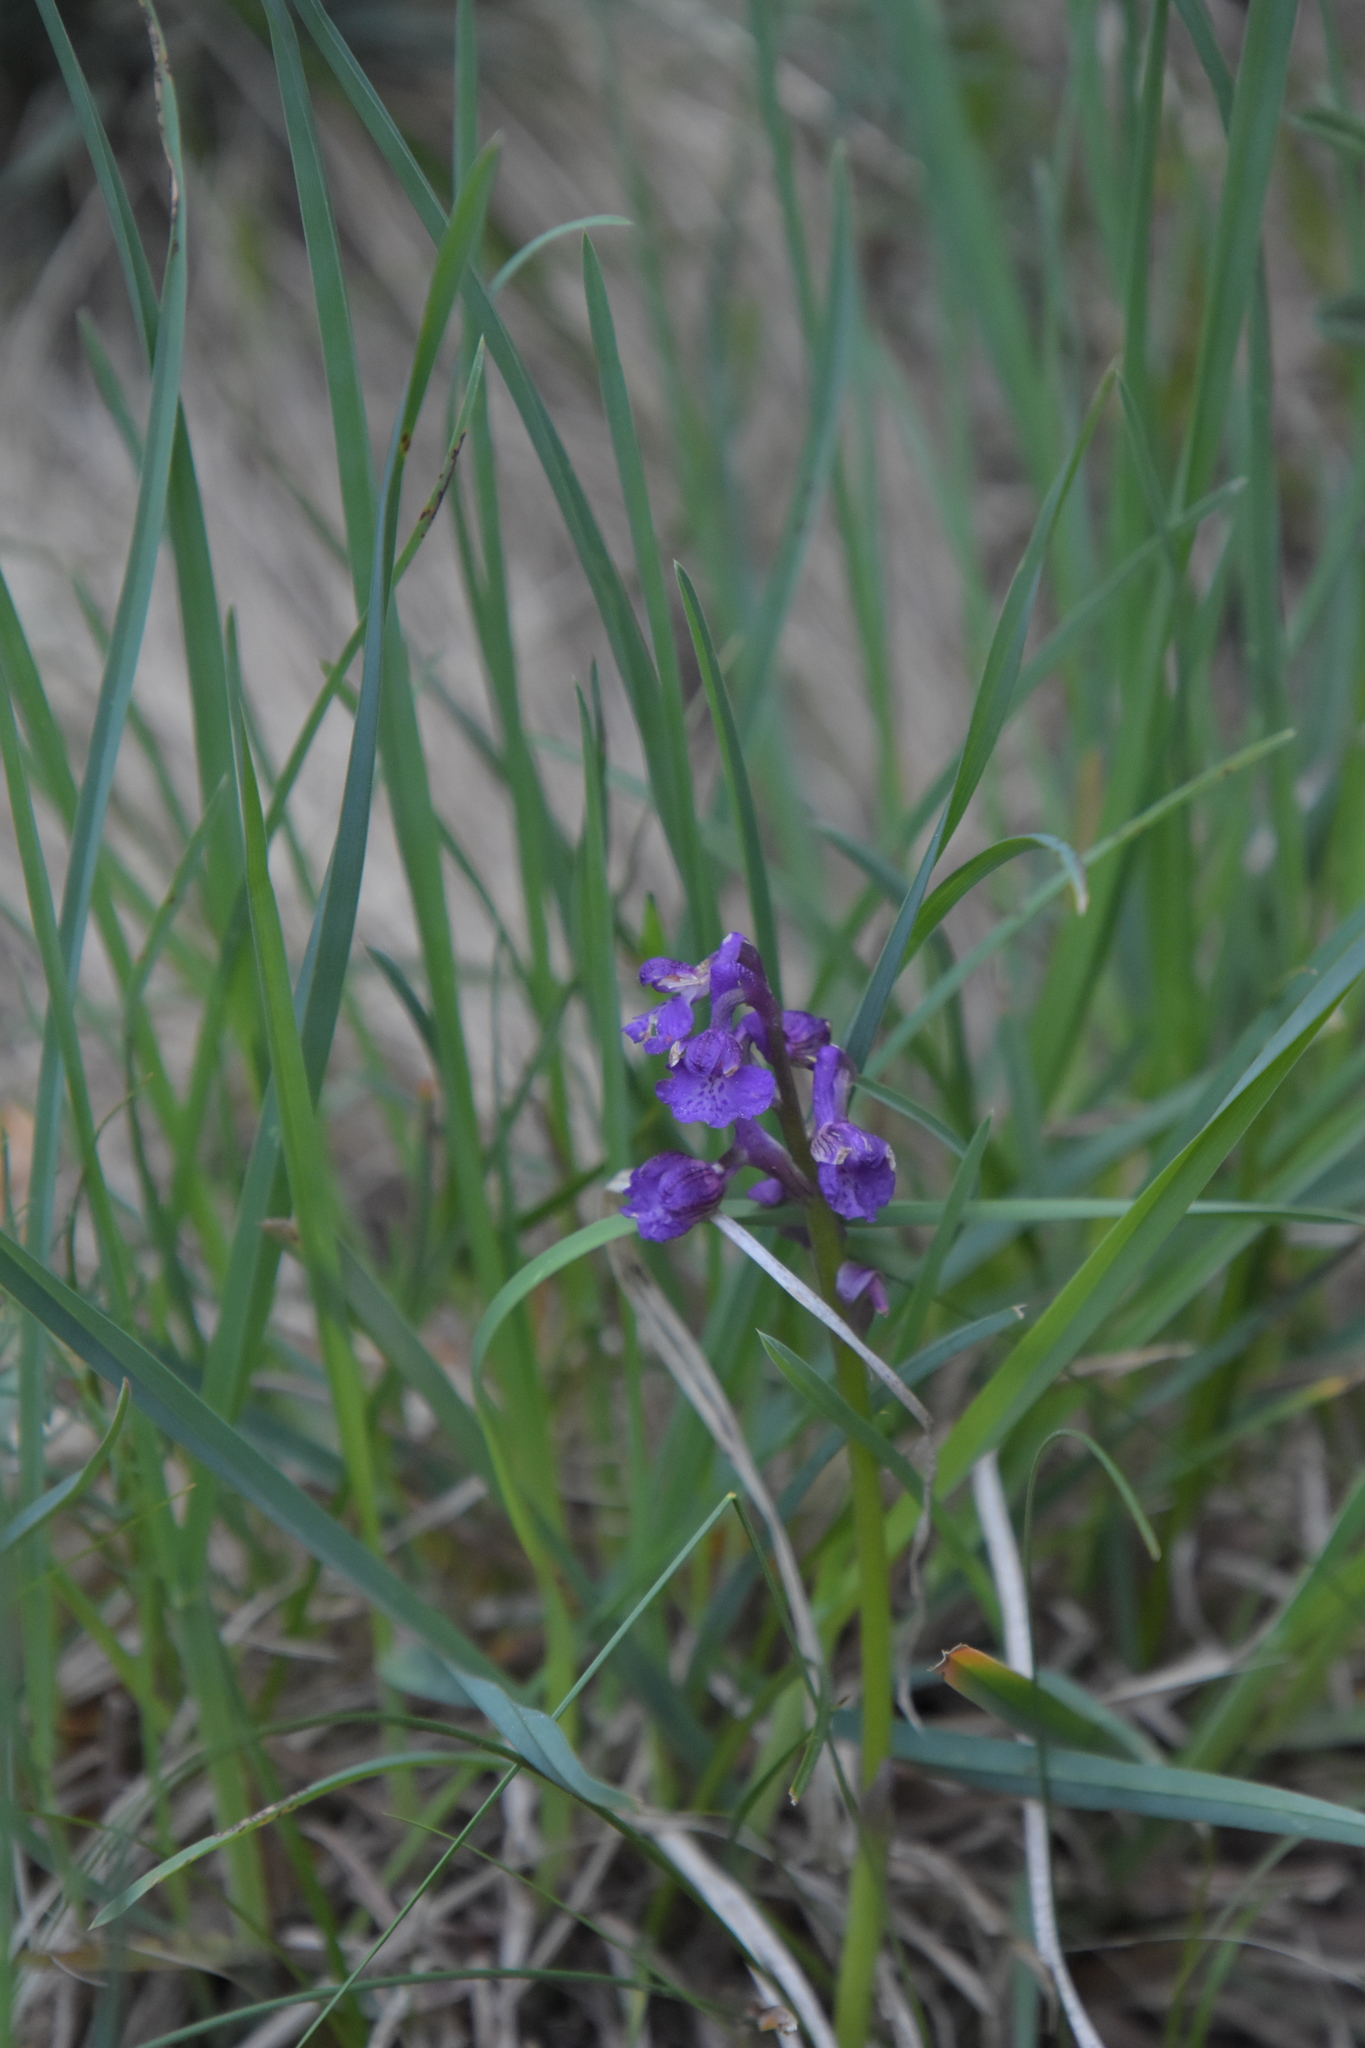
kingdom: Plantae
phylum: Tracheophyta
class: Liliopsida
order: Asparagales
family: Orchidaceae
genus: Anacamptis
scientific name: Anacamptis morio
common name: Green-winged orchid
